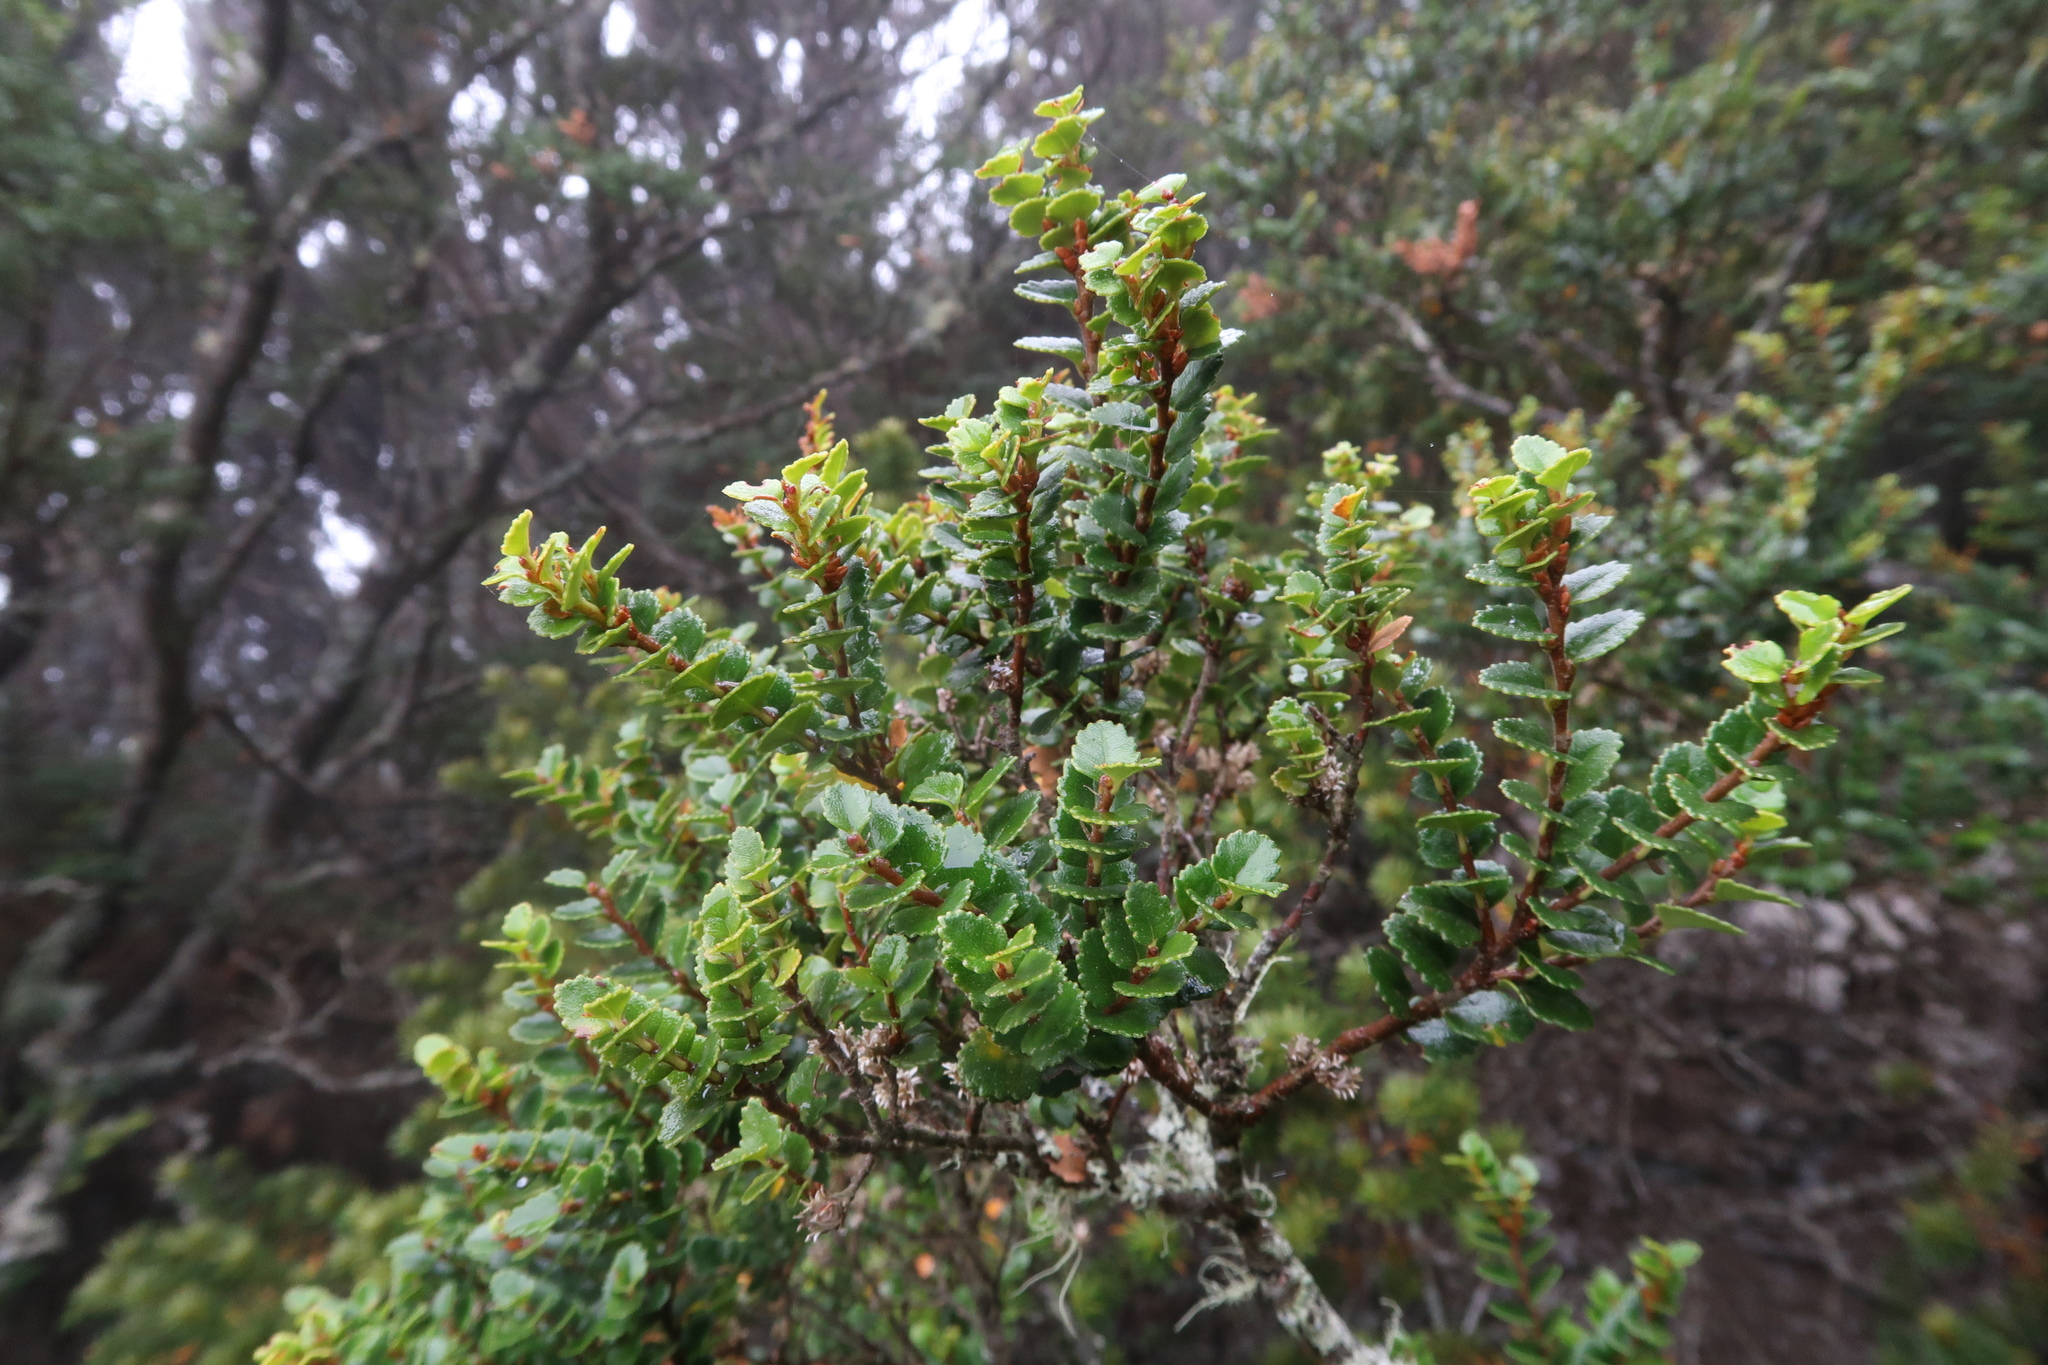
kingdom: Plantae
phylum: Tracheophyta
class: Magnoliopsida
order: Fagales
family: Nothofagaceae
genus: Nothofagus
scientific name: Nothofagus cunninghamii
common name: Myrtle beech
